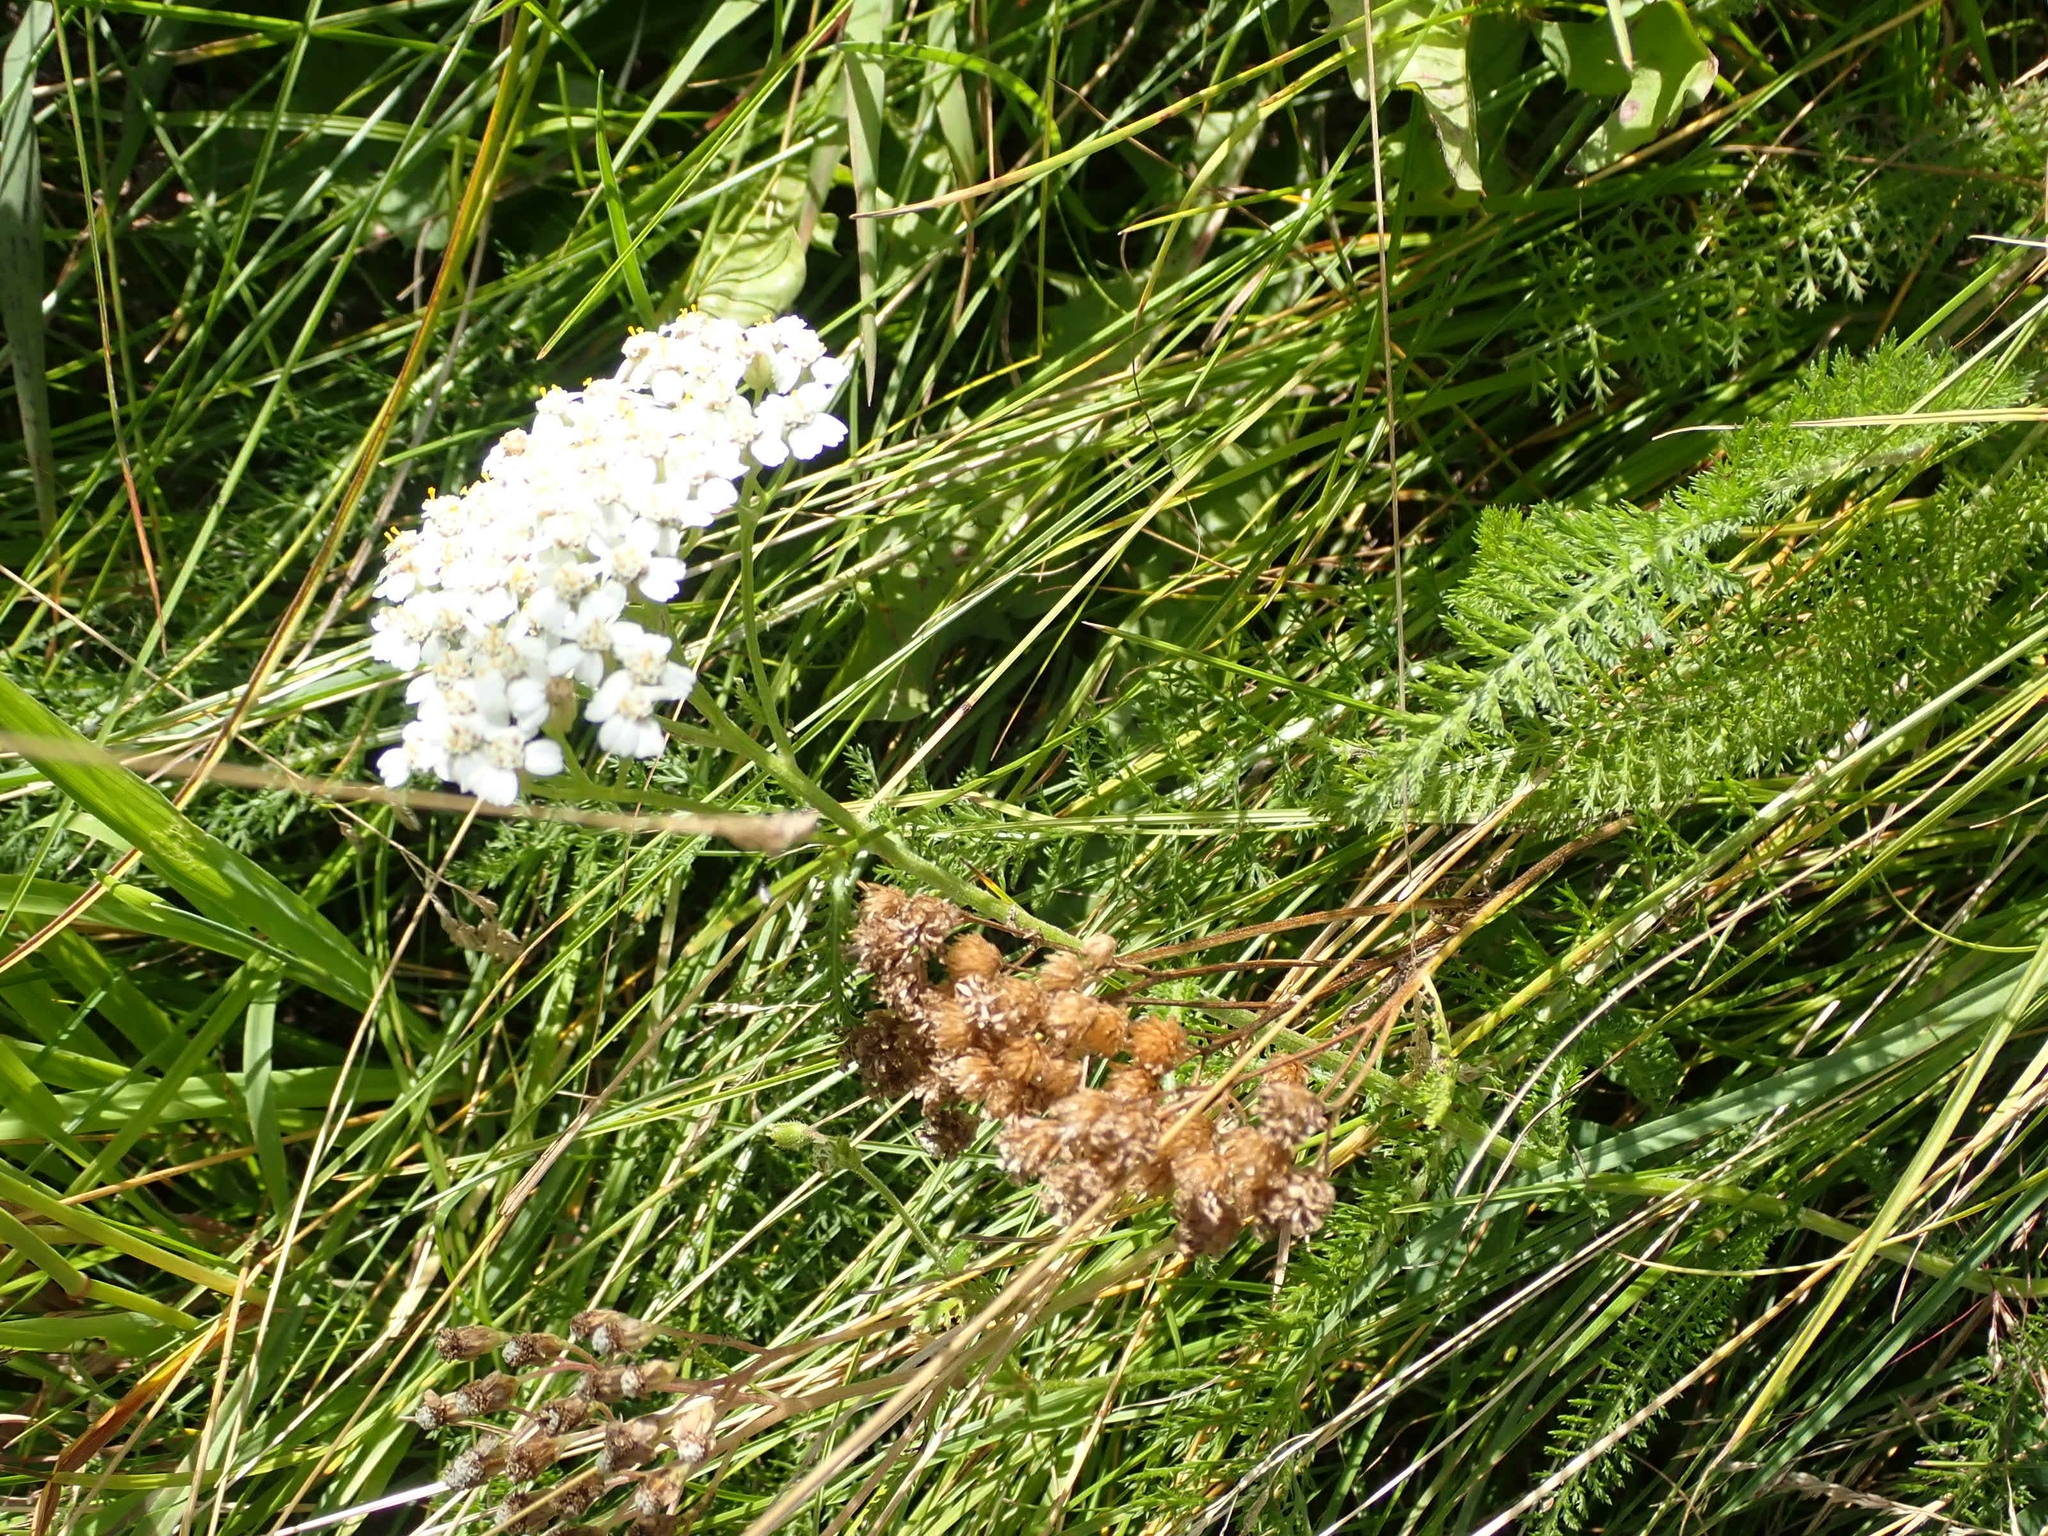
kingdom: Plantae
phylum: Tracheophyta
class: Magnoliopsida
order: Asterales
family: Asteraceae
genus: Achillea
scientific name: Achillea millefolium
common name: Yarrow
